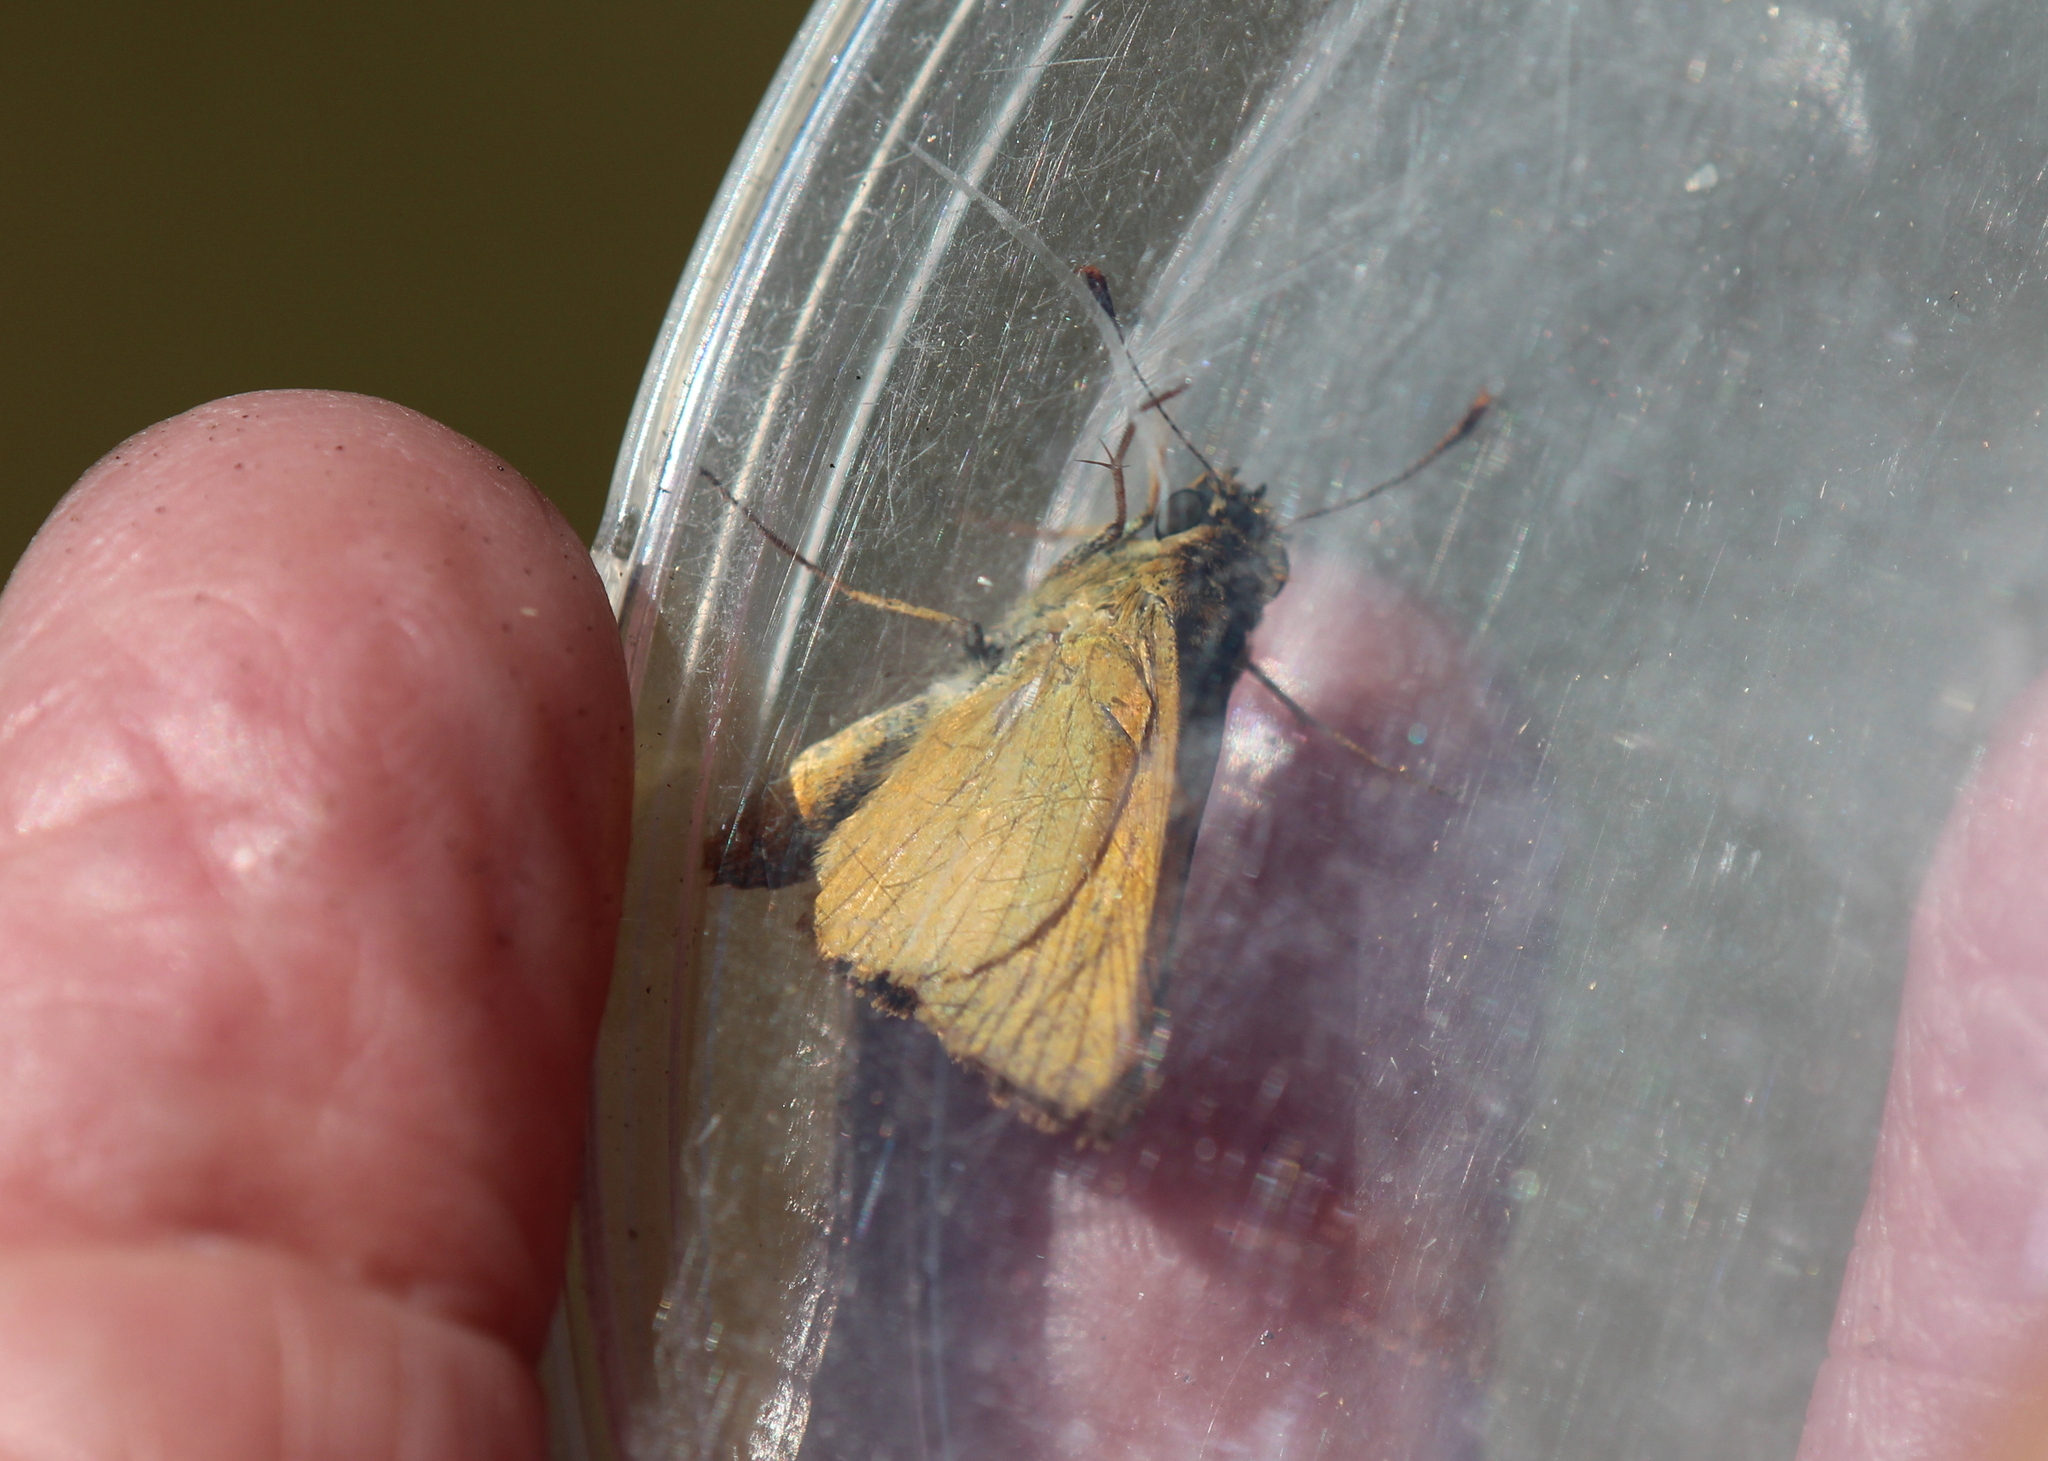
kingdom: Animalia
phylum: Arthropoda
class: Insecta
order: Lepidoptera
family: Hesperiidae
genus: Atrytone
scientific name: Atrytone delaware
